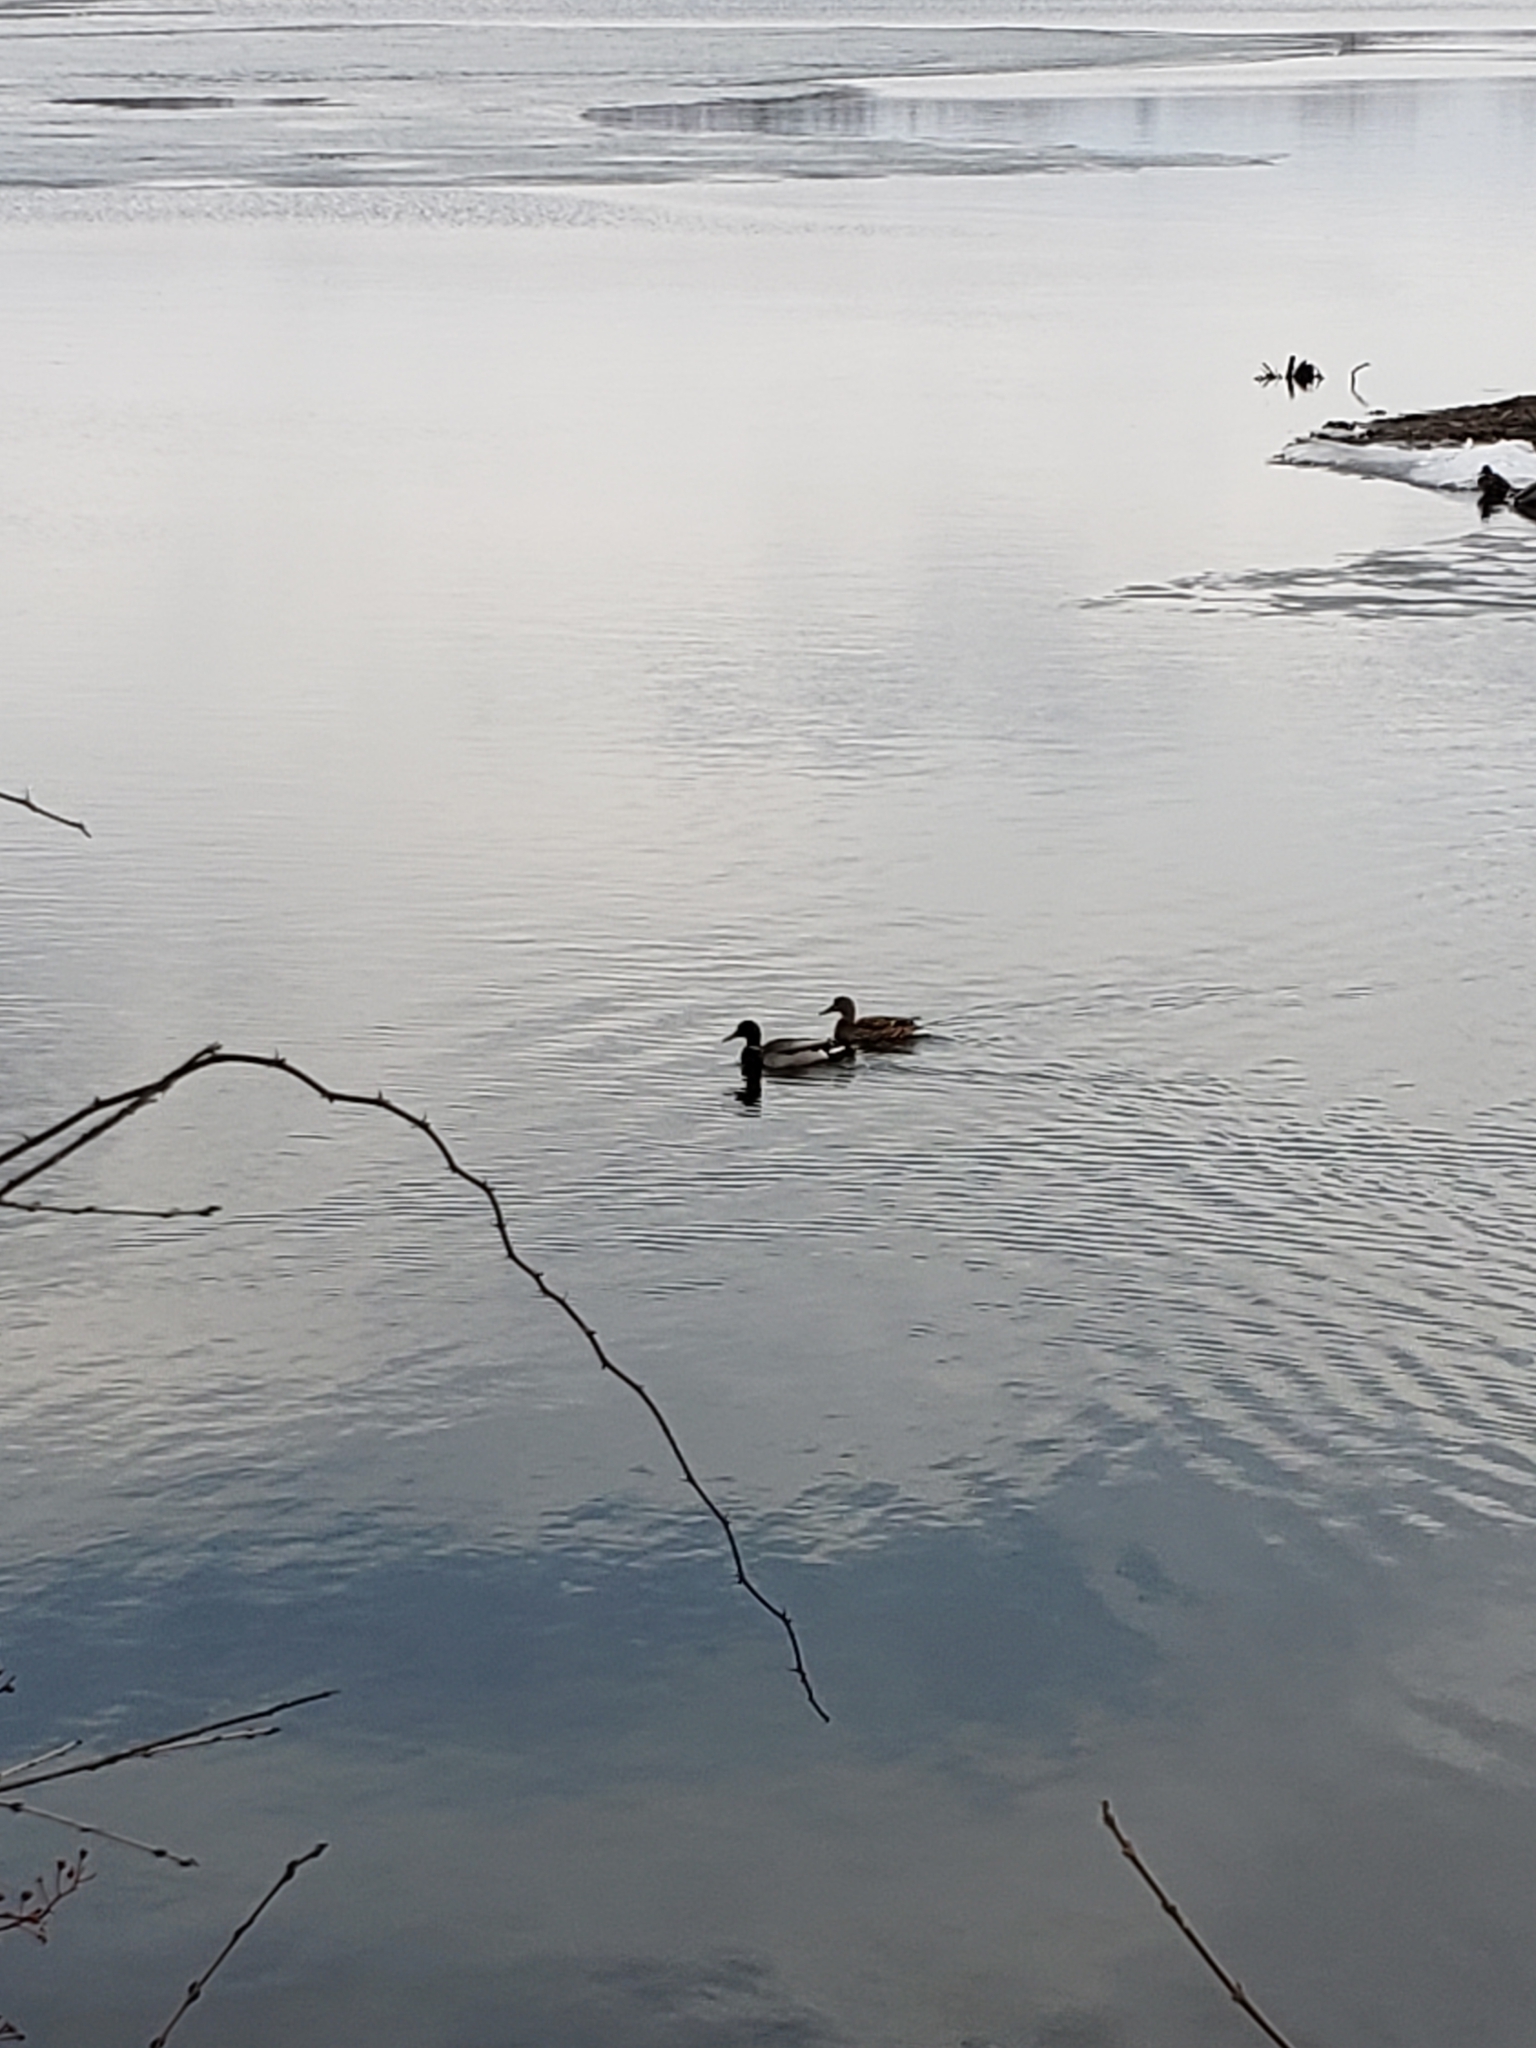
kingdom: Animalia
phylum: Chordata
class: Aves
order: Anseriformes
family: Anatidae
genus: Anas
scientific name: Anas platyrhynchos
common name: Mallard
